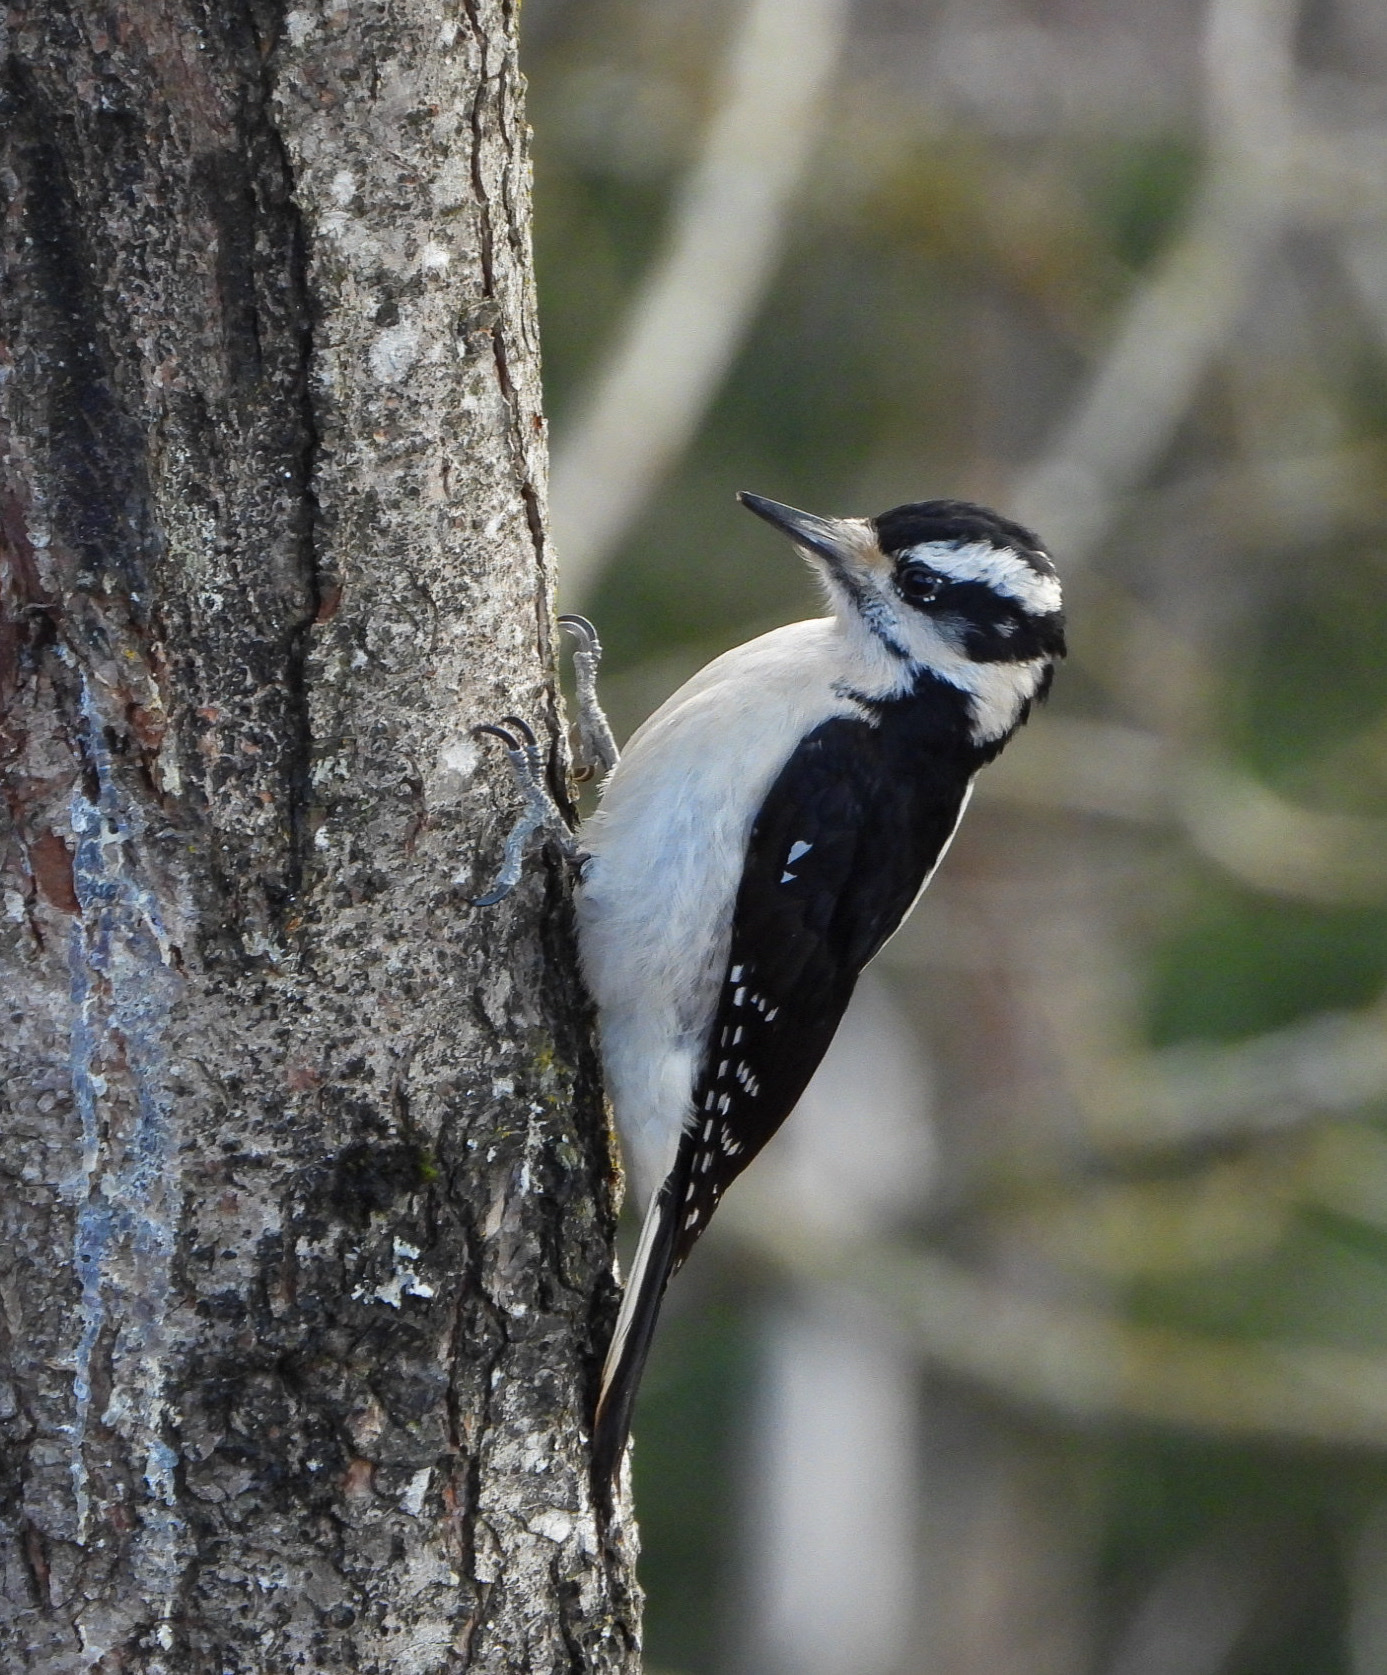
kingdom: Animalia
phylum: Chordata
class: Aves
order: Piciformes
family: Picidae
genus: Leuconotopicus
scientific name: Leuconotopicus villosus
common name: Hairy woodpecker
